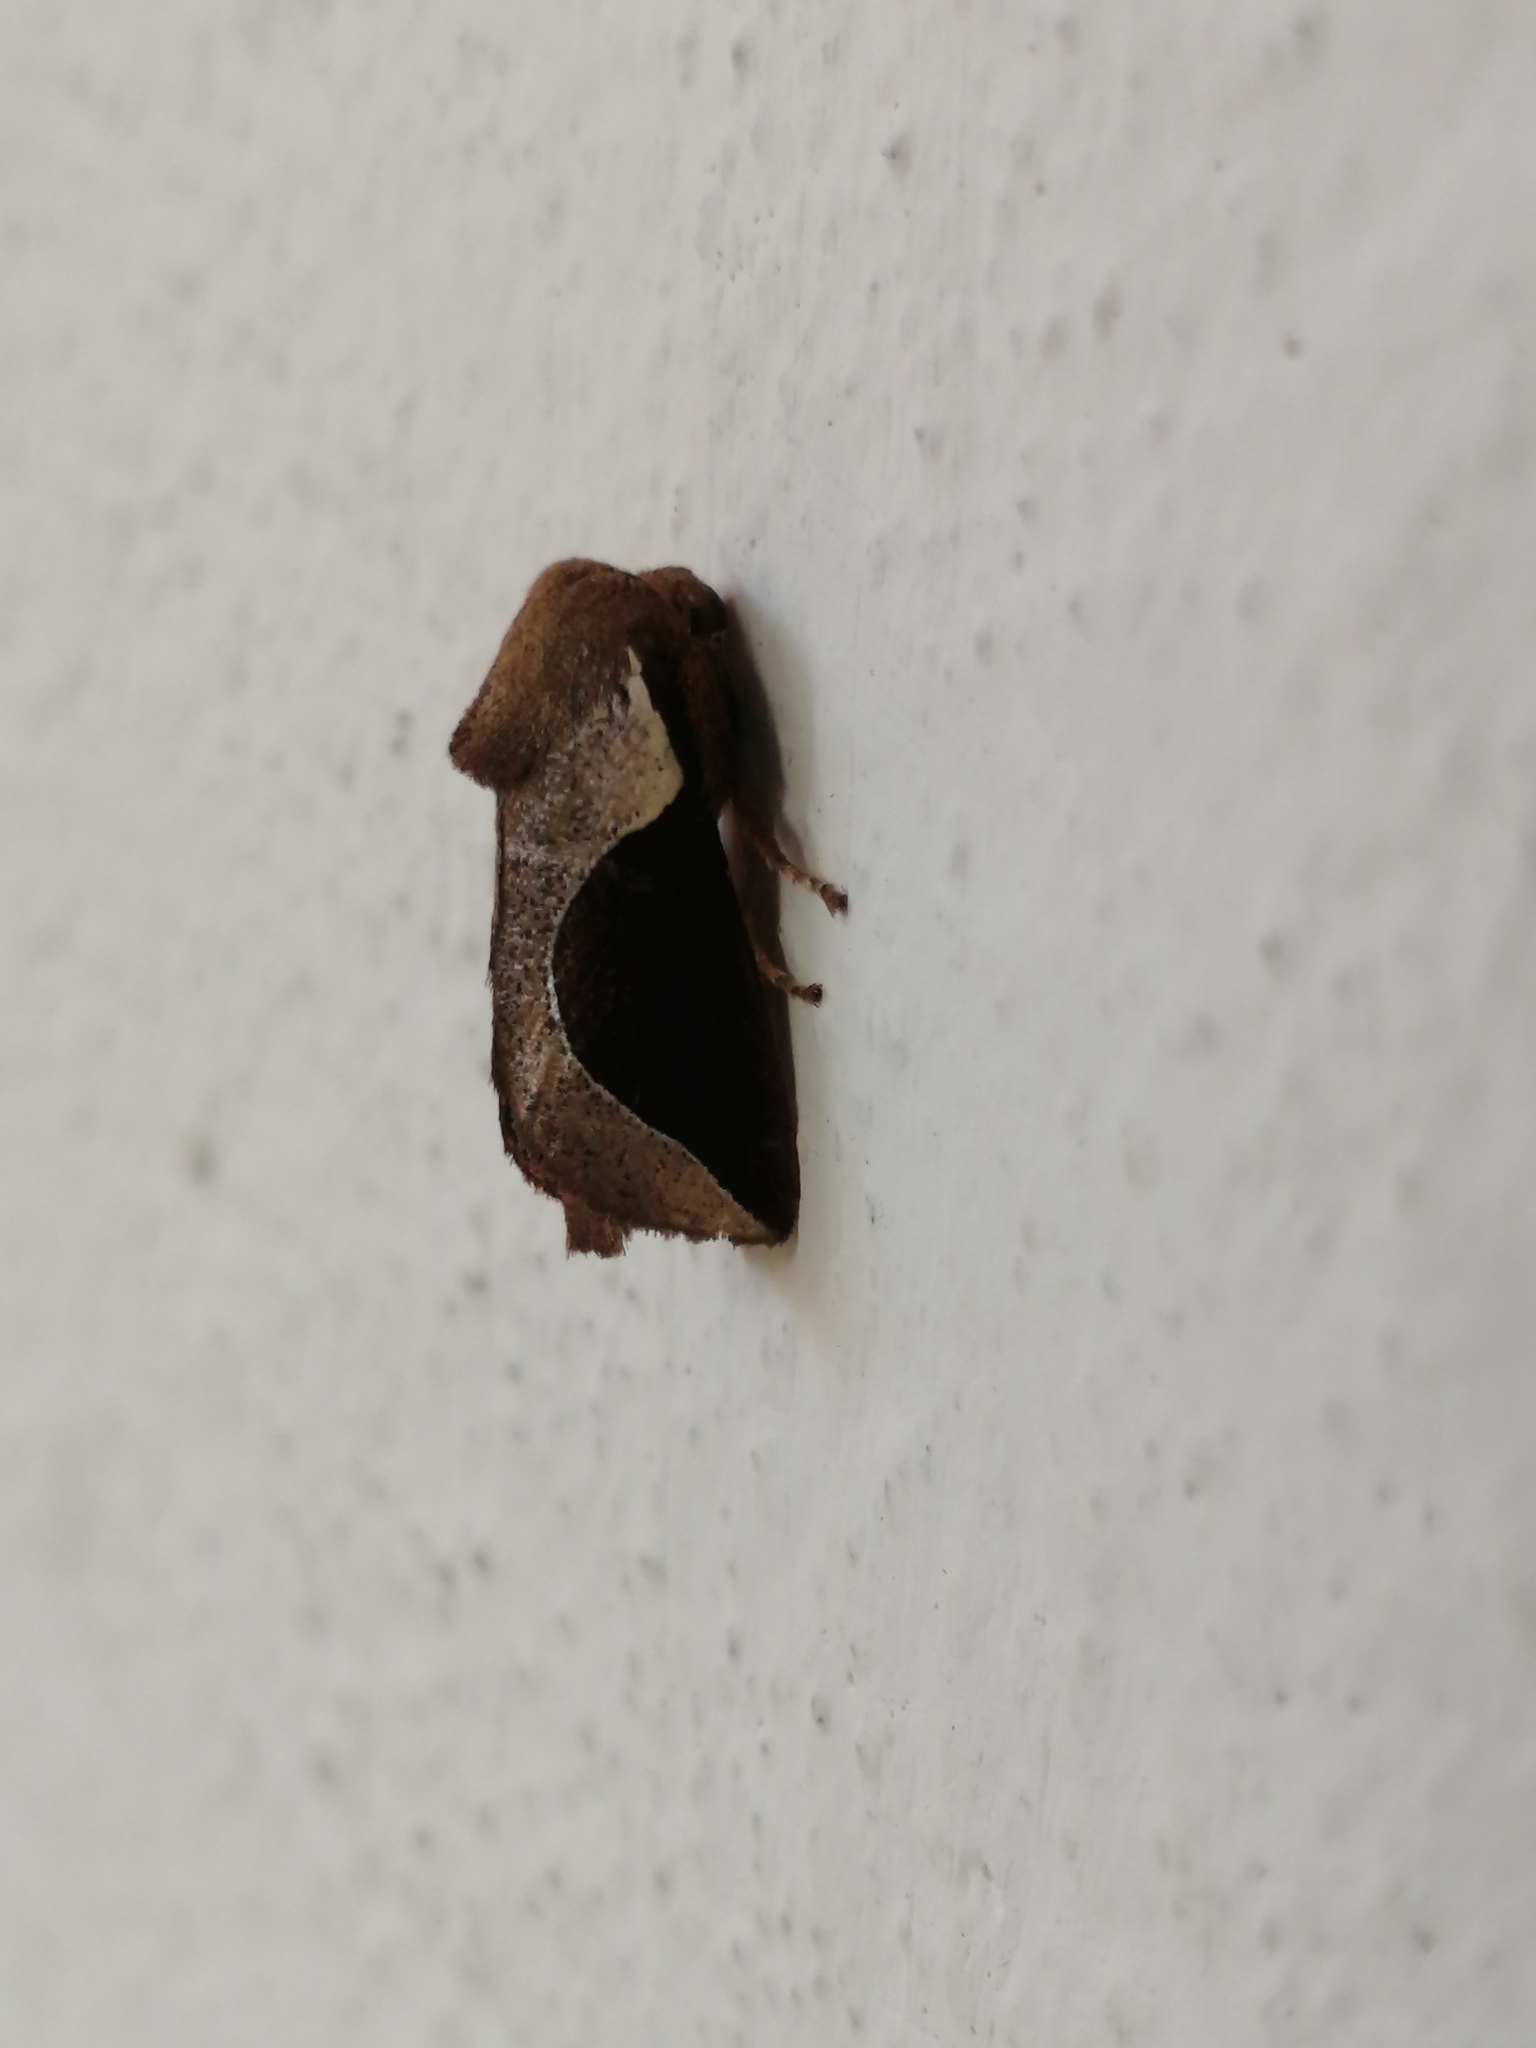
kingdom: Animalia
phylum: Arthropoda
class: Insecta
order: Lepidoptera
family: Limacodidae
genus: Prolimacodes
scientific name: Prolimacodes badia
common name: Skiff moth
